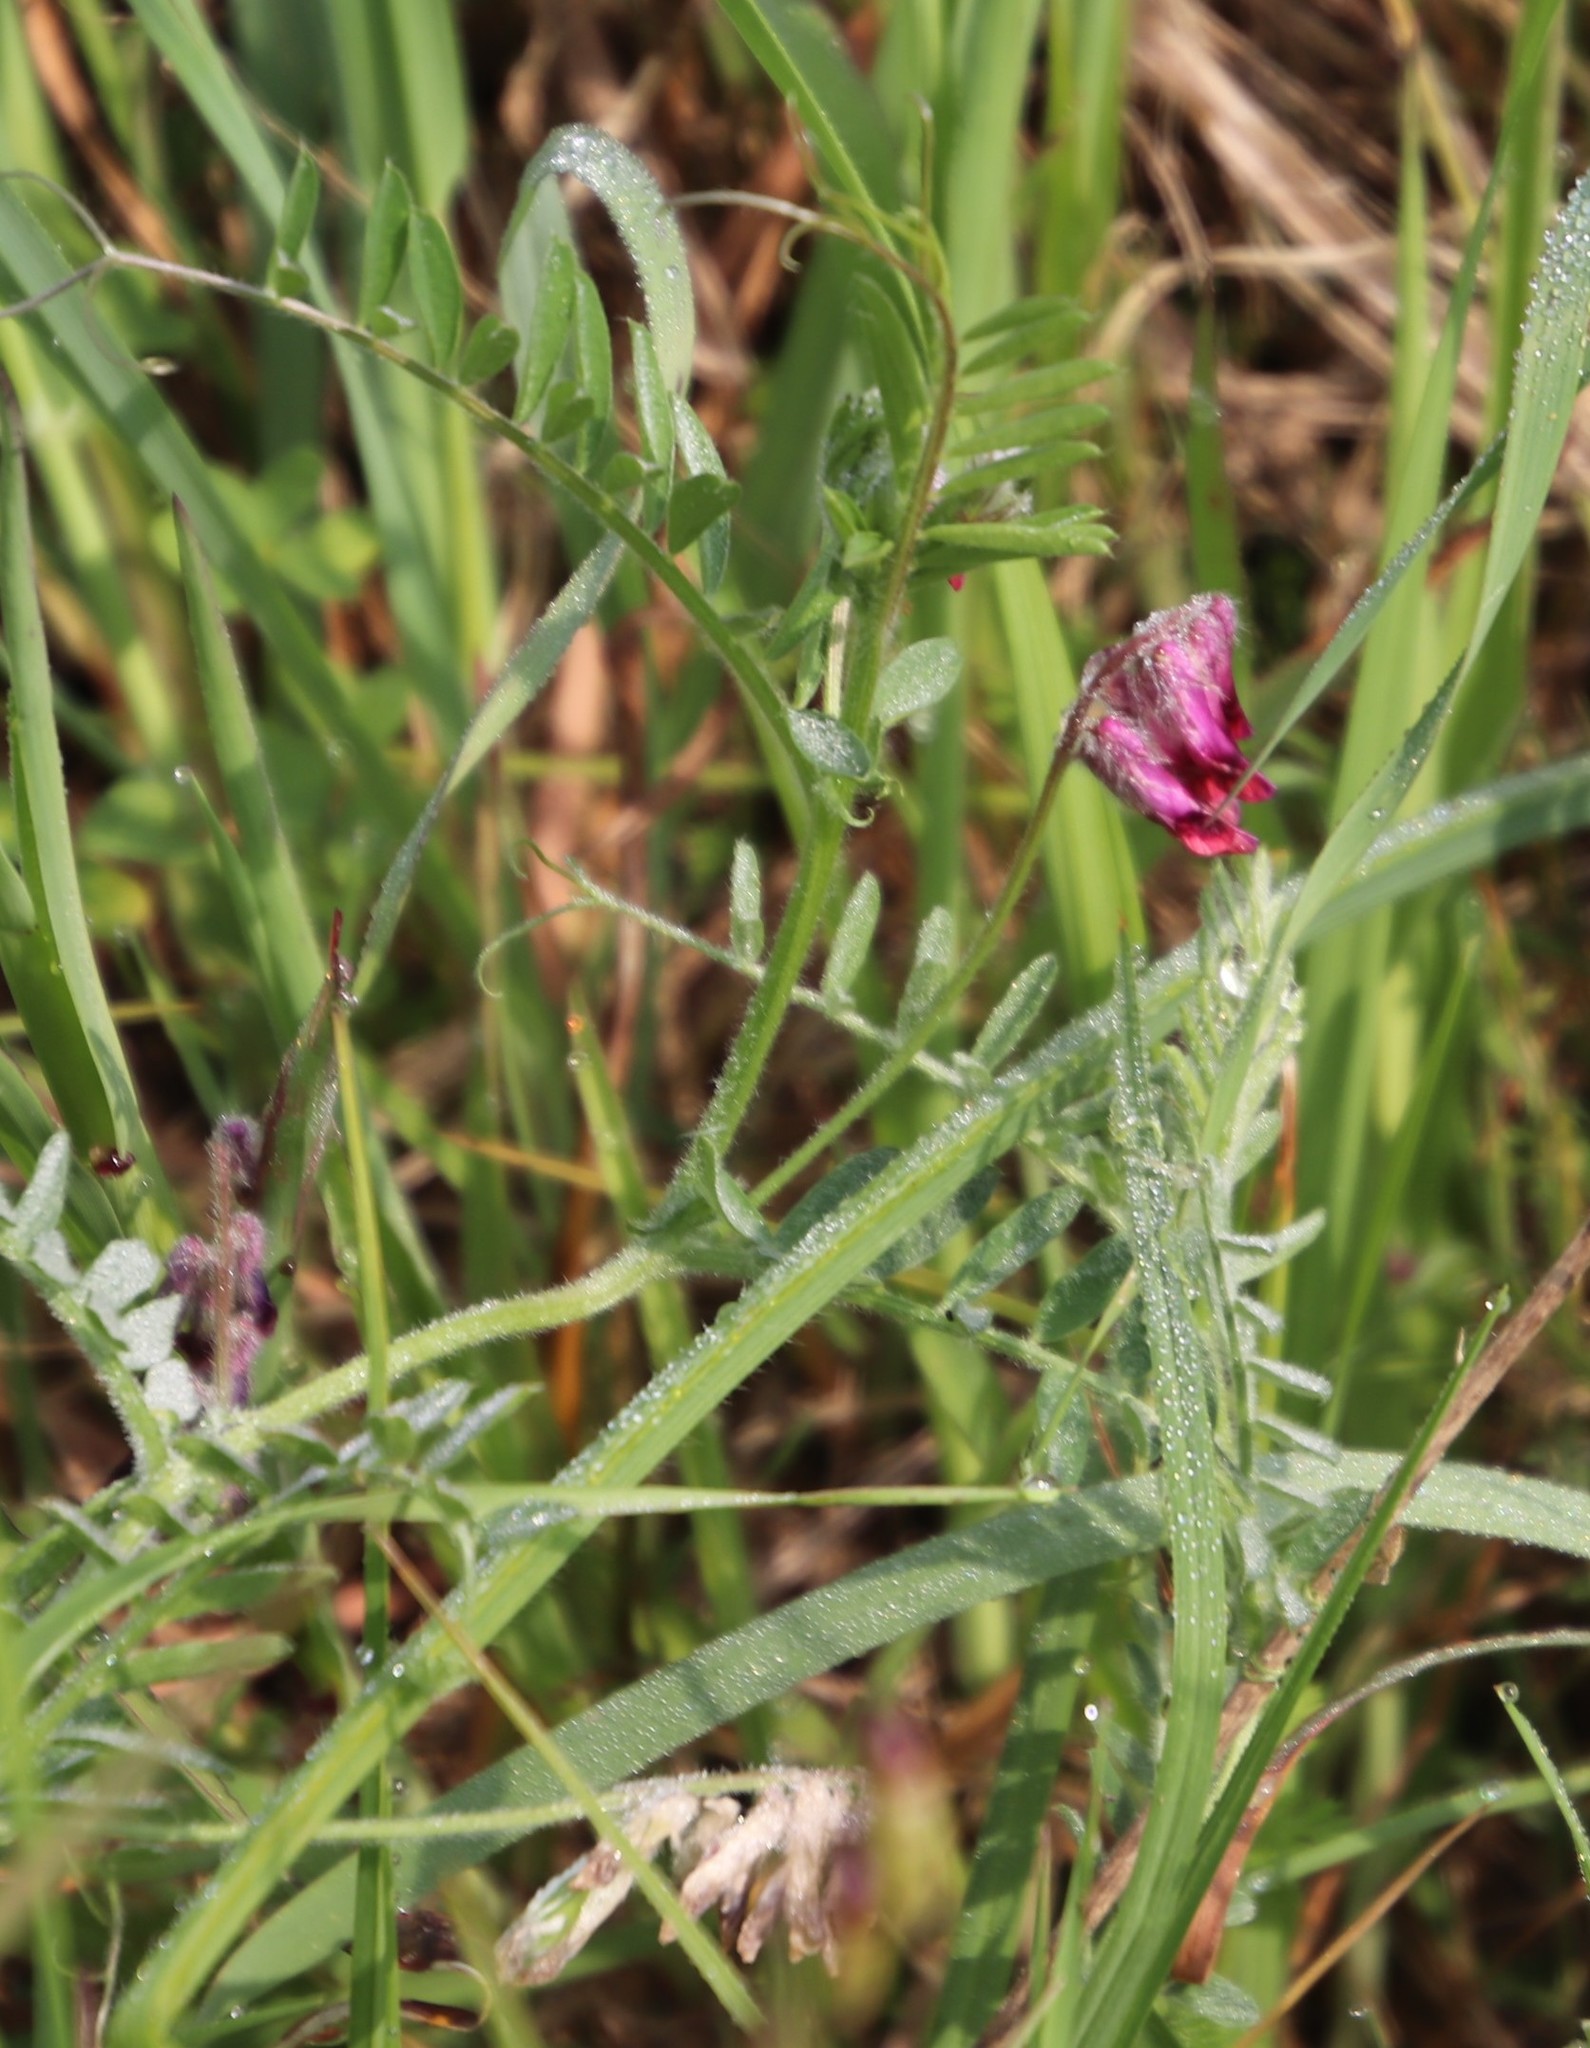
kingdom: Plantae
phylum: Tracheophyta
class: Magnoliopsida
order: Fabales
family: Fabaceae
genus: Vicia
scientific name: Vicia benghalensis
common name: Purple vetch
